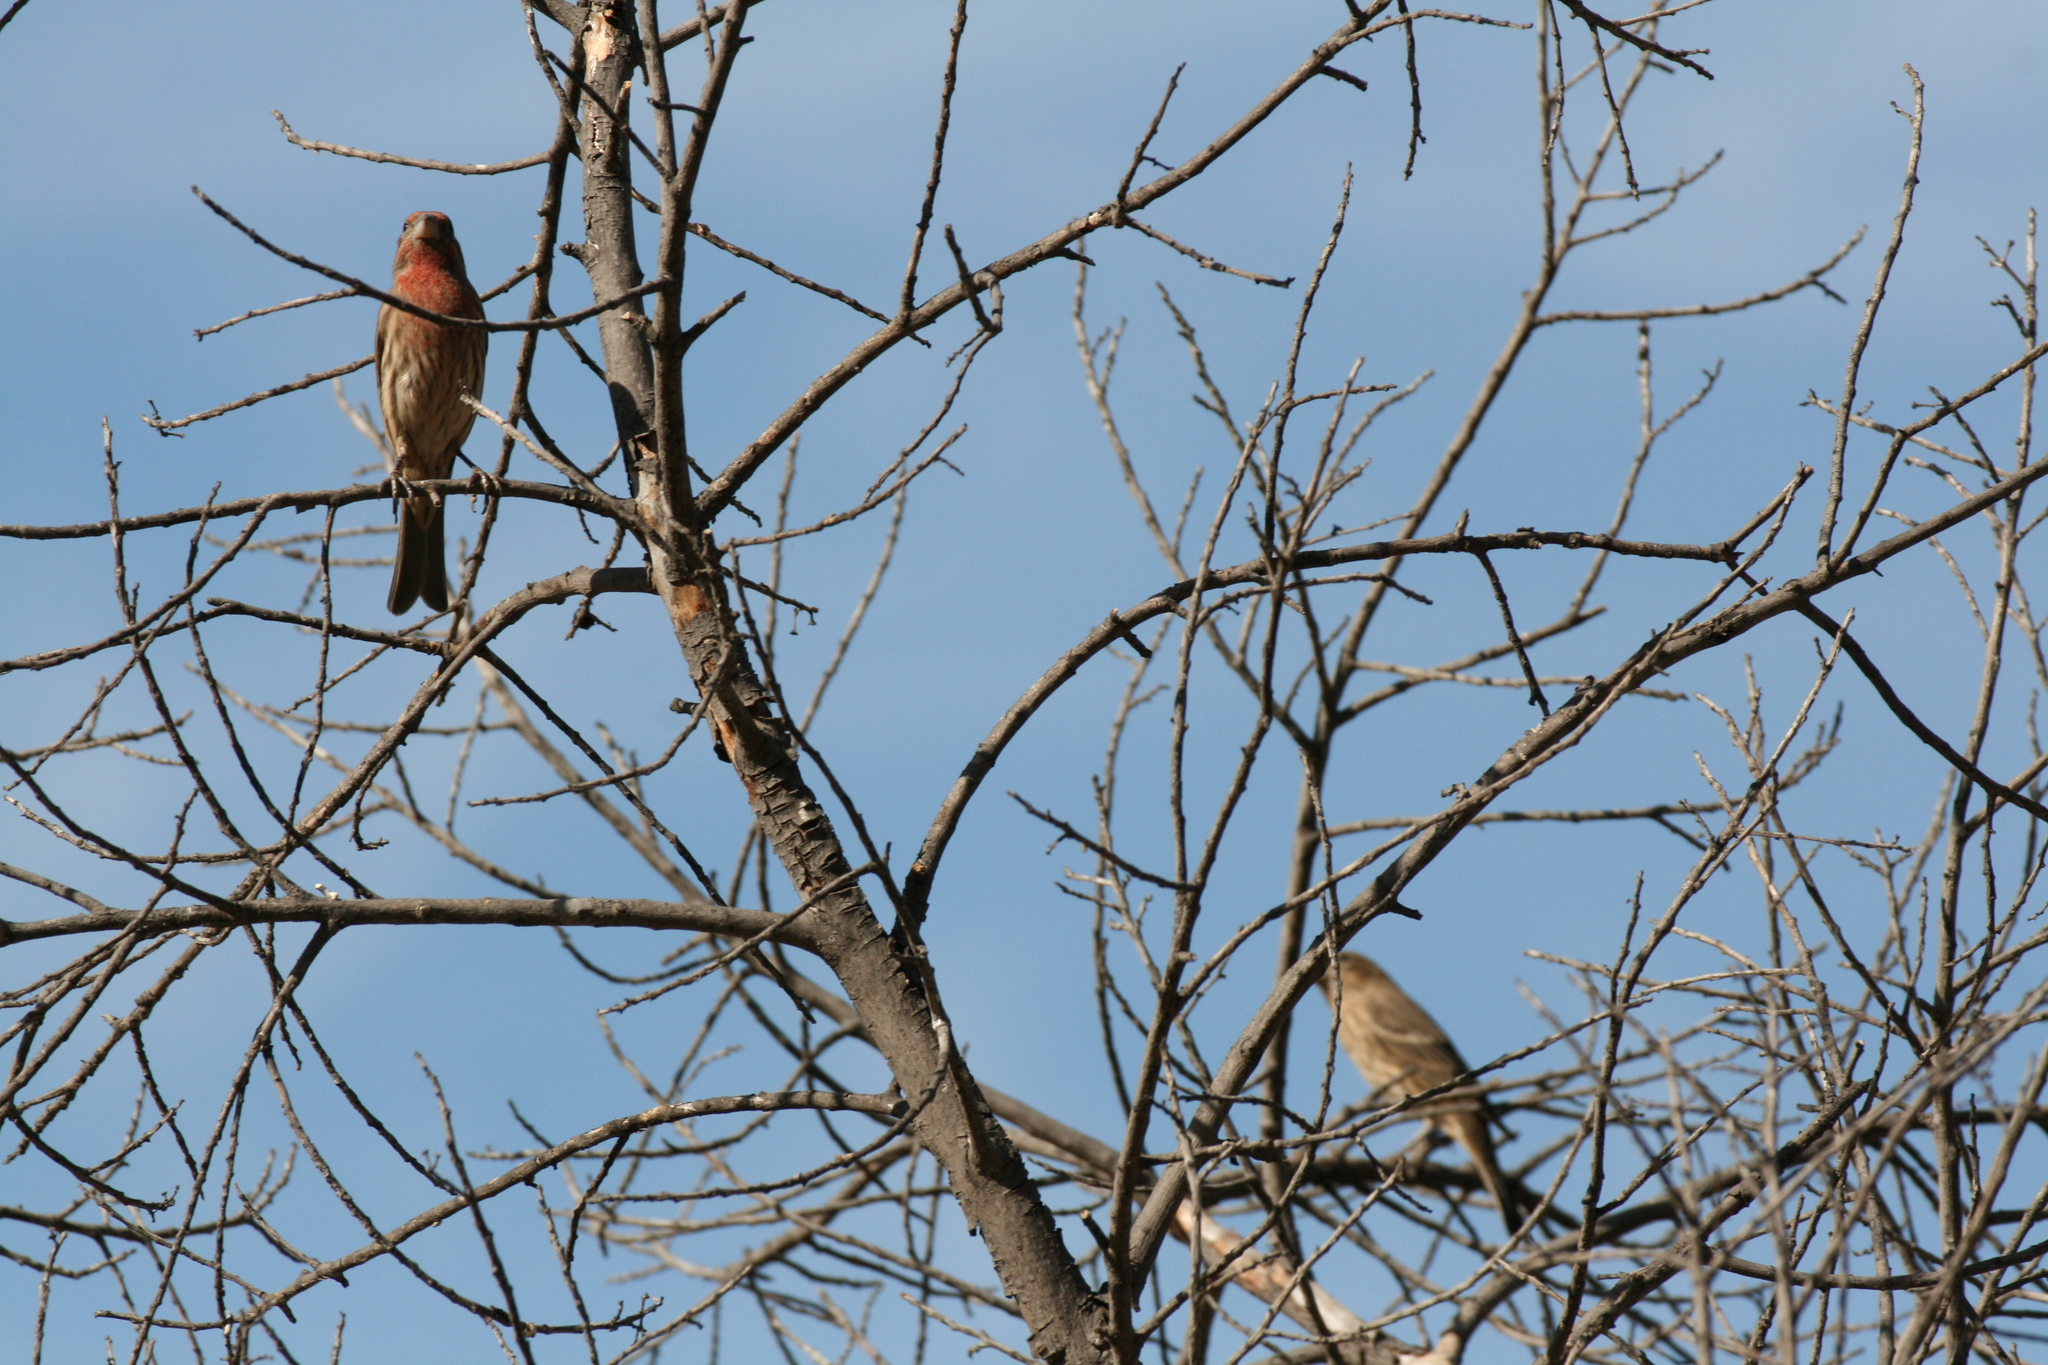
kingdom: Animalia
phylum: Chordata
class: Aves
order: Passeriformes
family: Fringillidae
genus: Haemorhous
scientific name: Haemorhous mexicanus
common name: House finch
